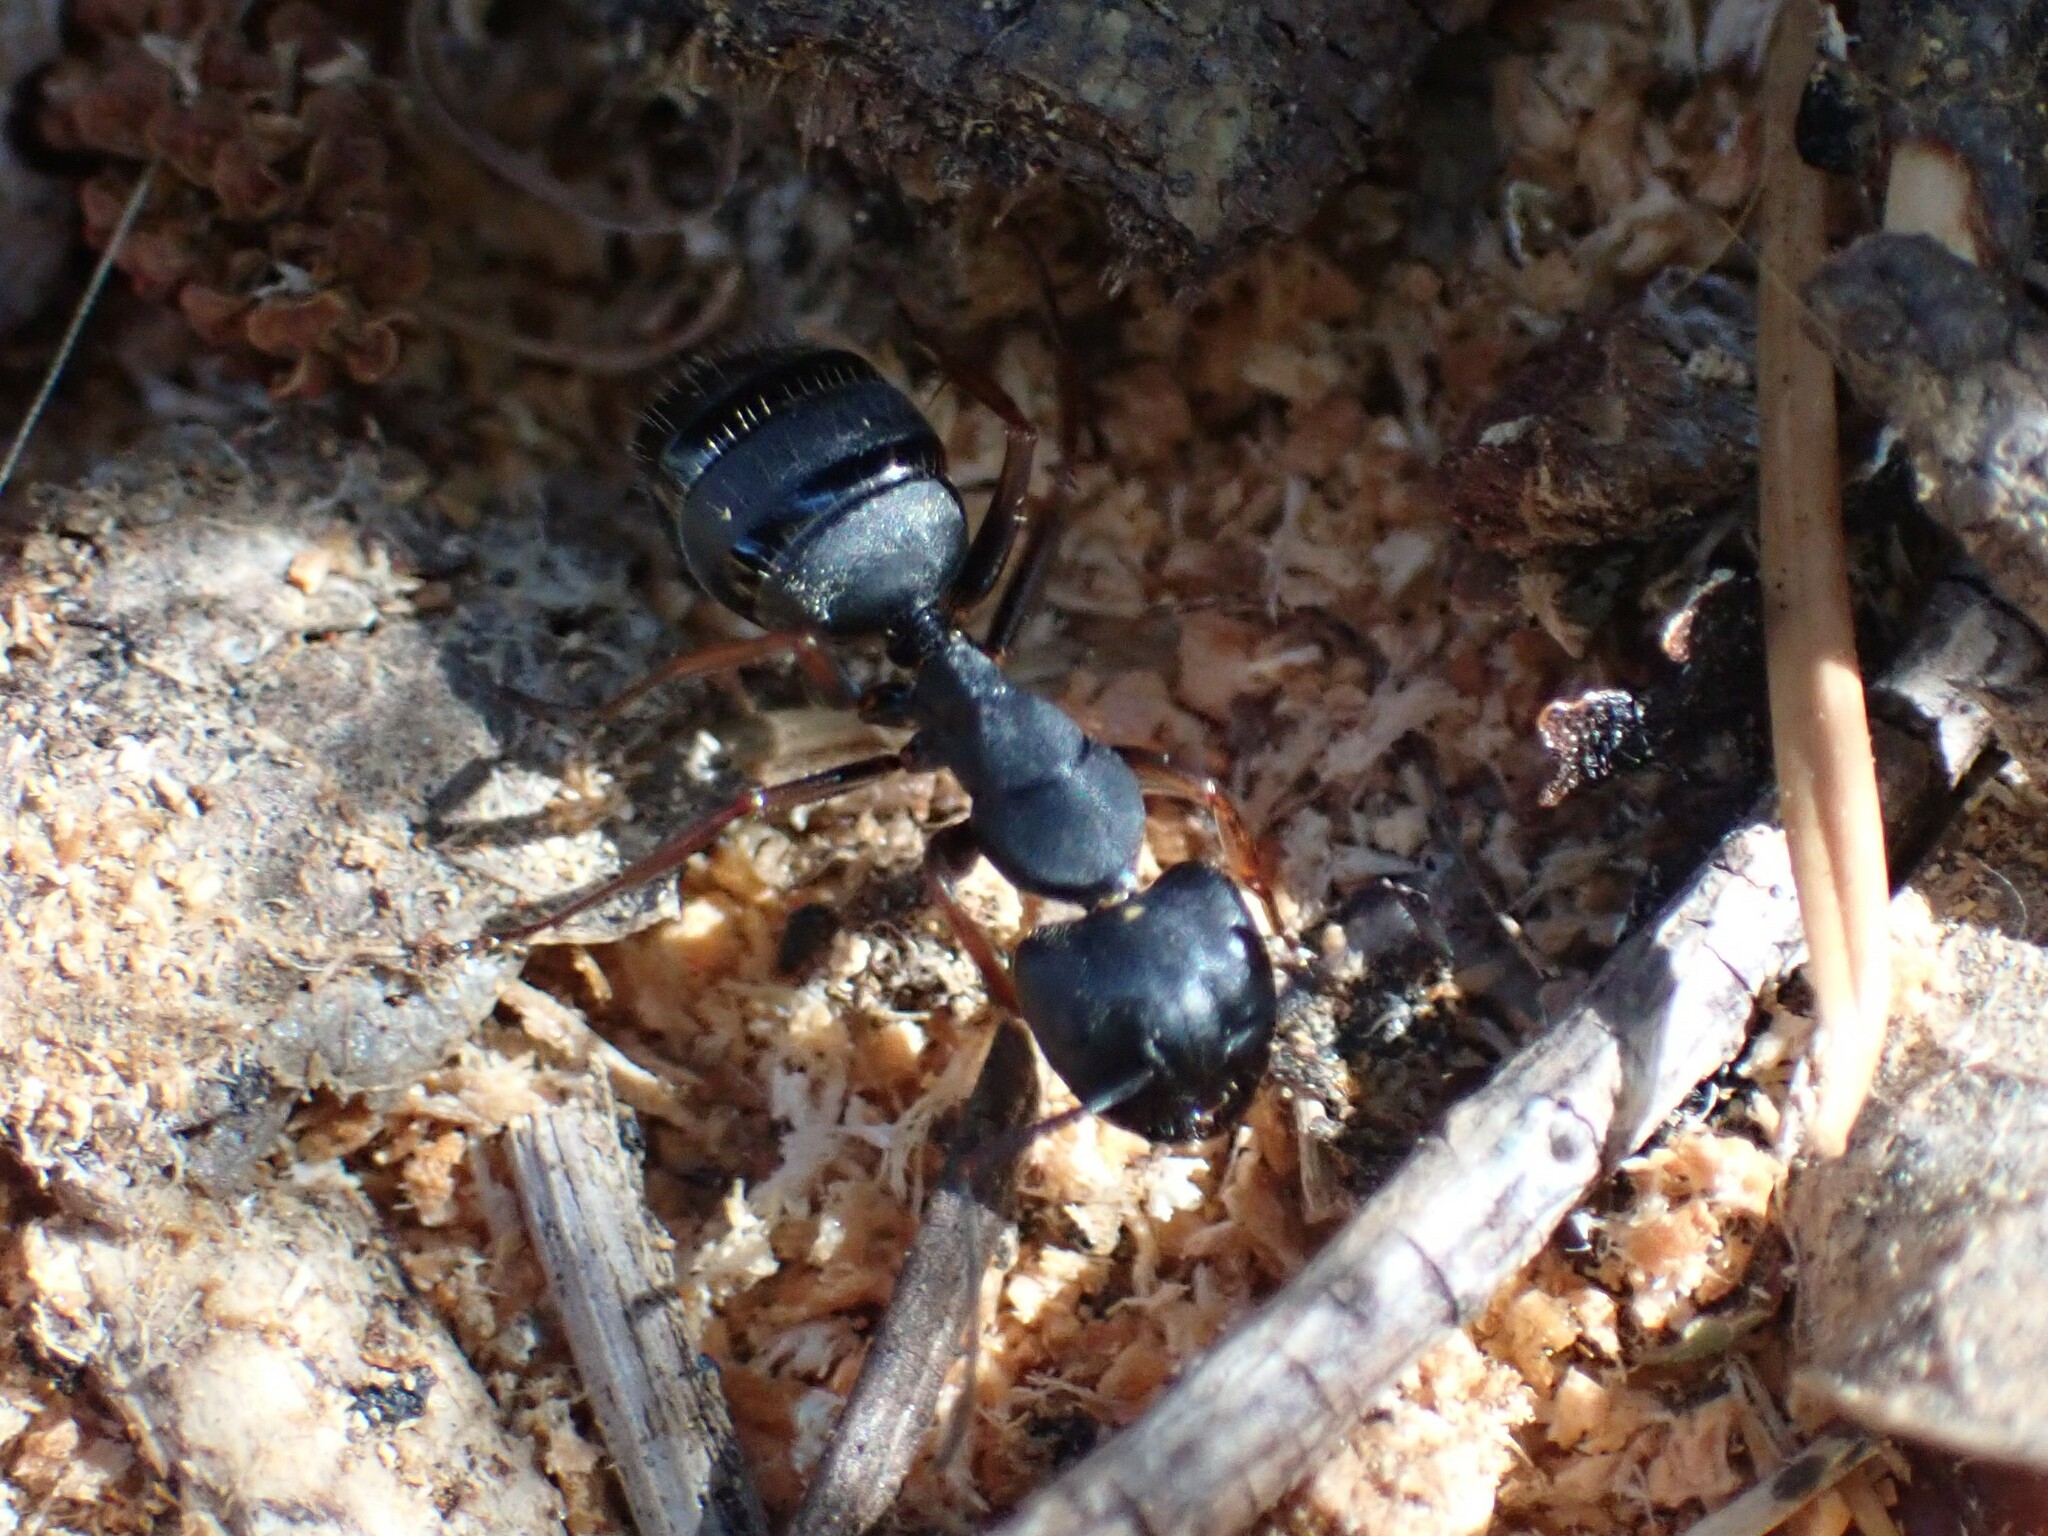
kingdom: Animalia
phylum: Arthropoda
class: Insecta
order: Hymenoptera
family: Formicidae
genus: Camponotus
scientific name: Camponotus modoc
